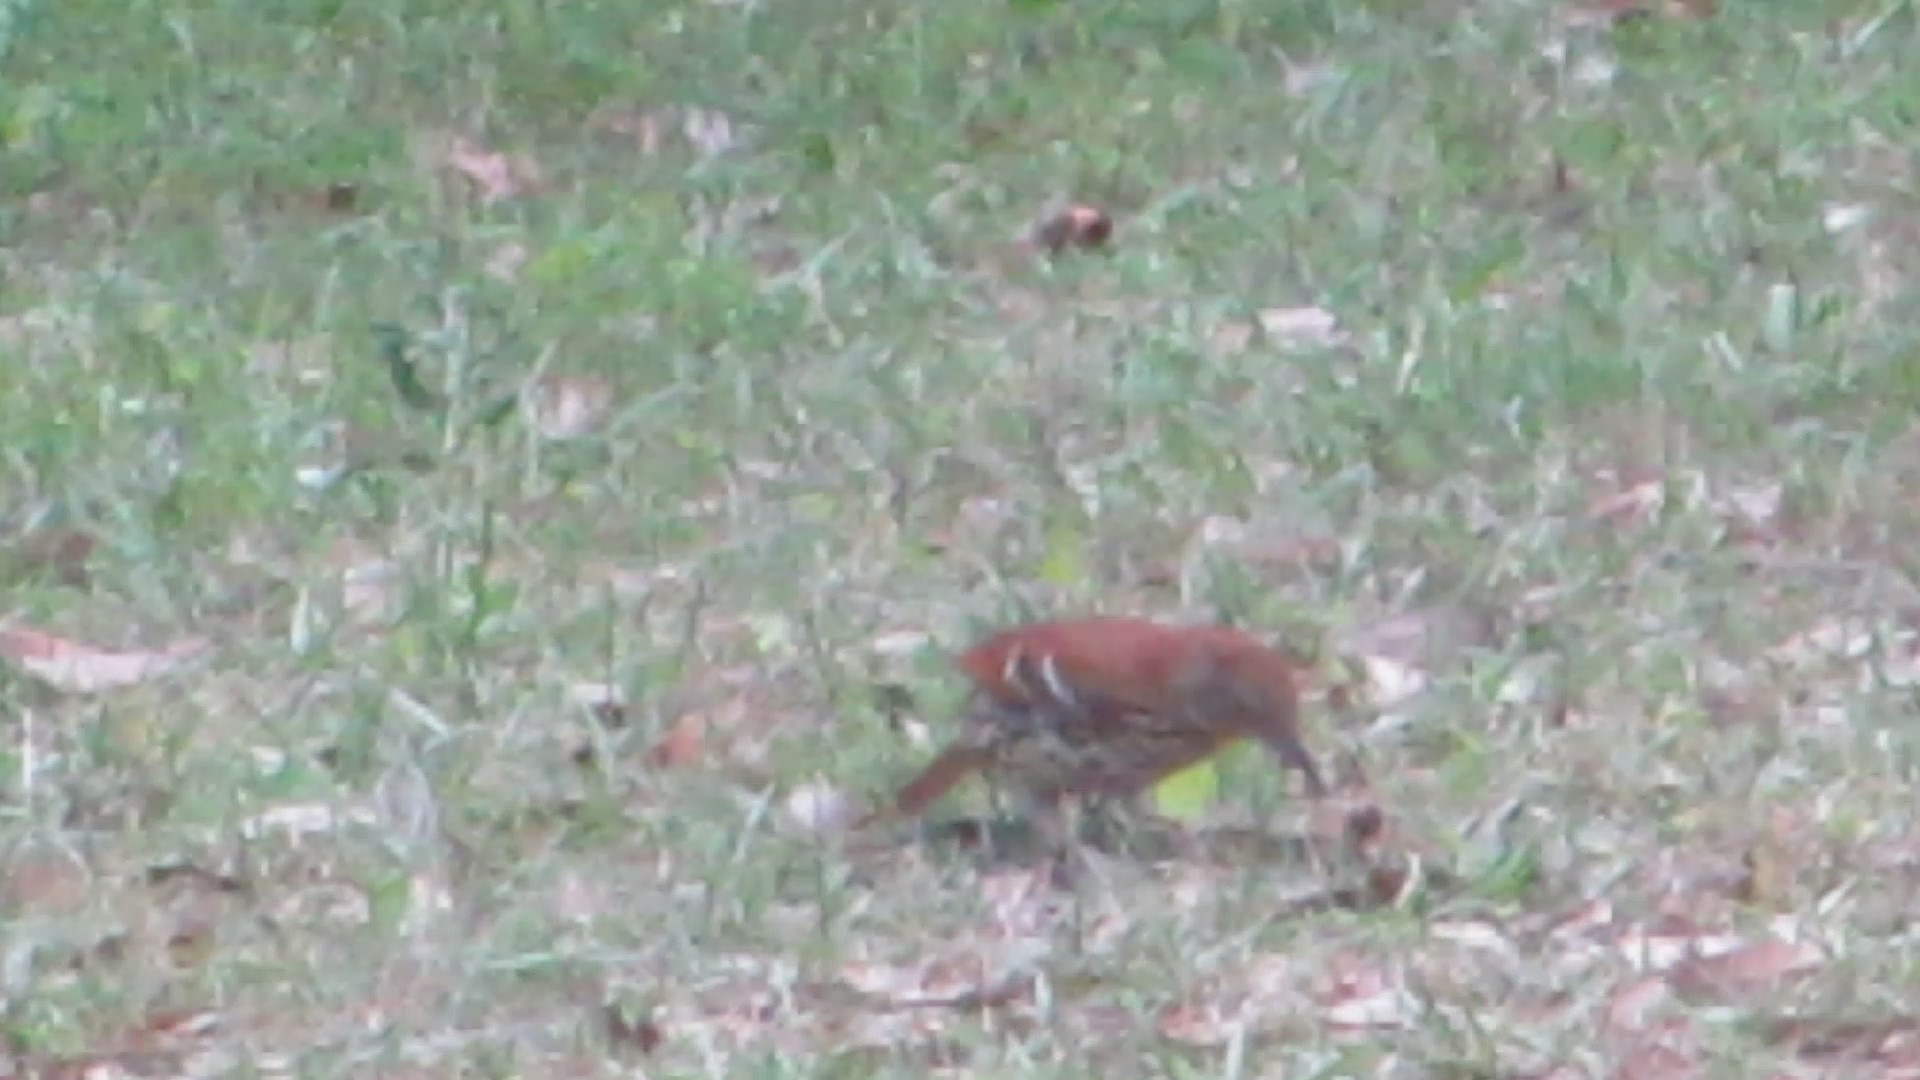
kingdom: Animalia
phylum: Chordata
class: Aves
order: Passeriformes
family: Mimidae
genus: Toxostoma
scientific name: Toxostoma rufum
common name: Brown thrasher
